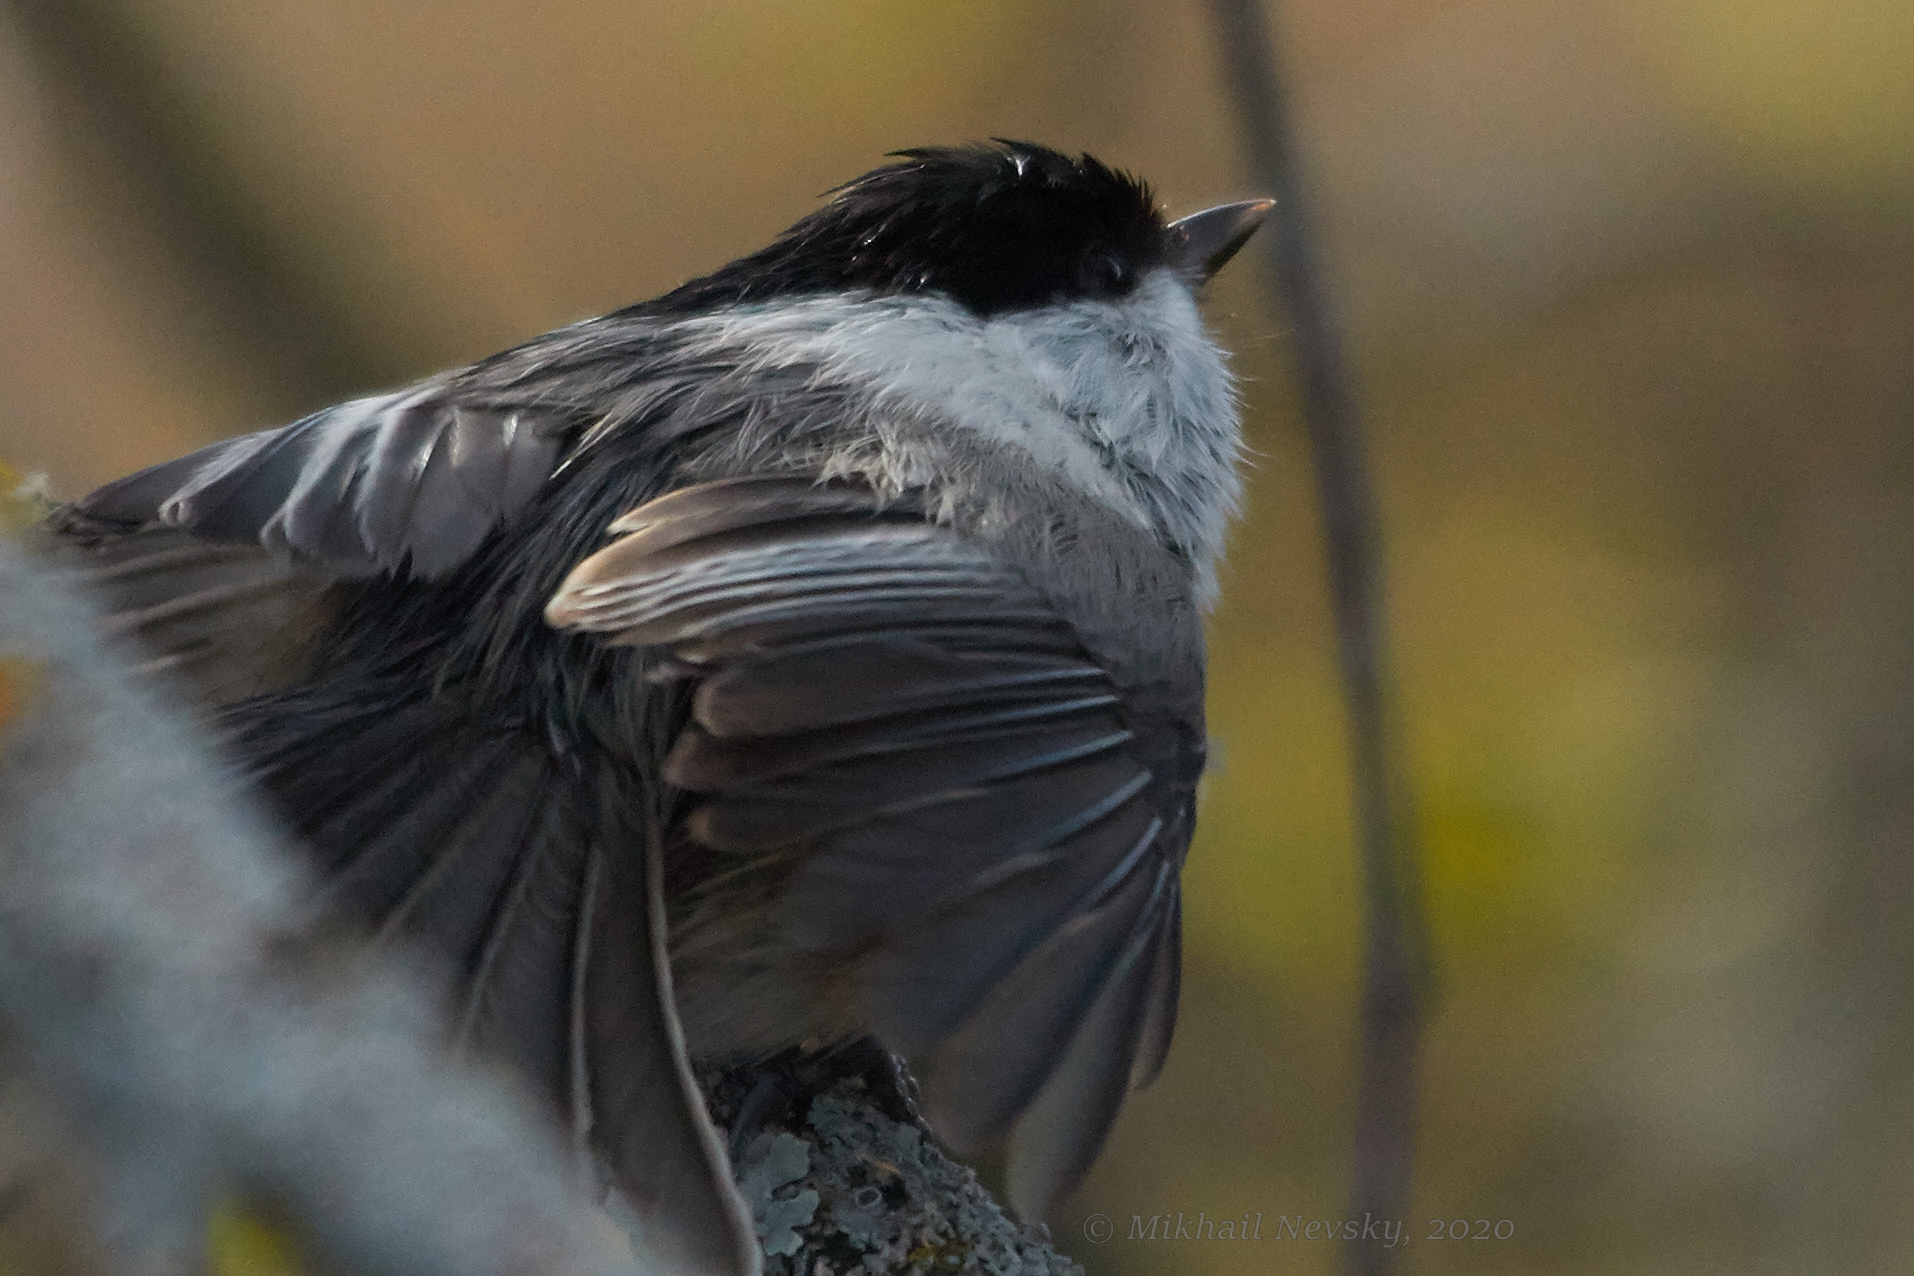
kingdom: Animalia
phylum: Chordata
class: Aves
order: Passeriformes
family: Paridae
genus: Poecile
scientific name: Poecile montanus
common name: Willow tit
